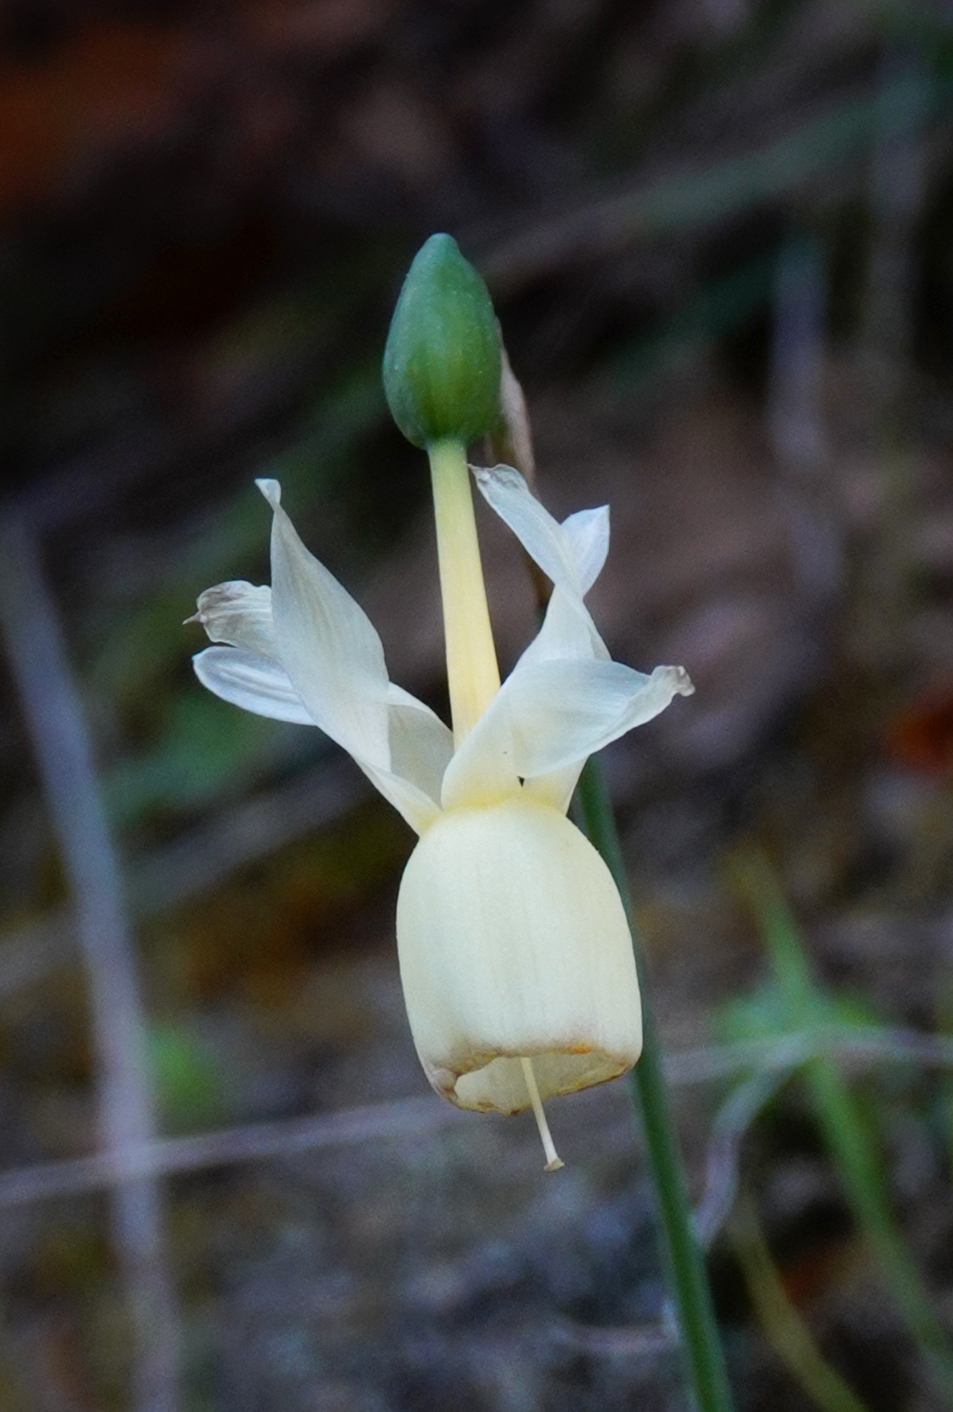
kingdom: Plantae
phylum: Tracheophyta
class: Liliopsida
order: Asparagales
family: Amaryllidaceae
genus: Narcissus
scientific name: Narcissus triandrus
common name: Angel's-tears
